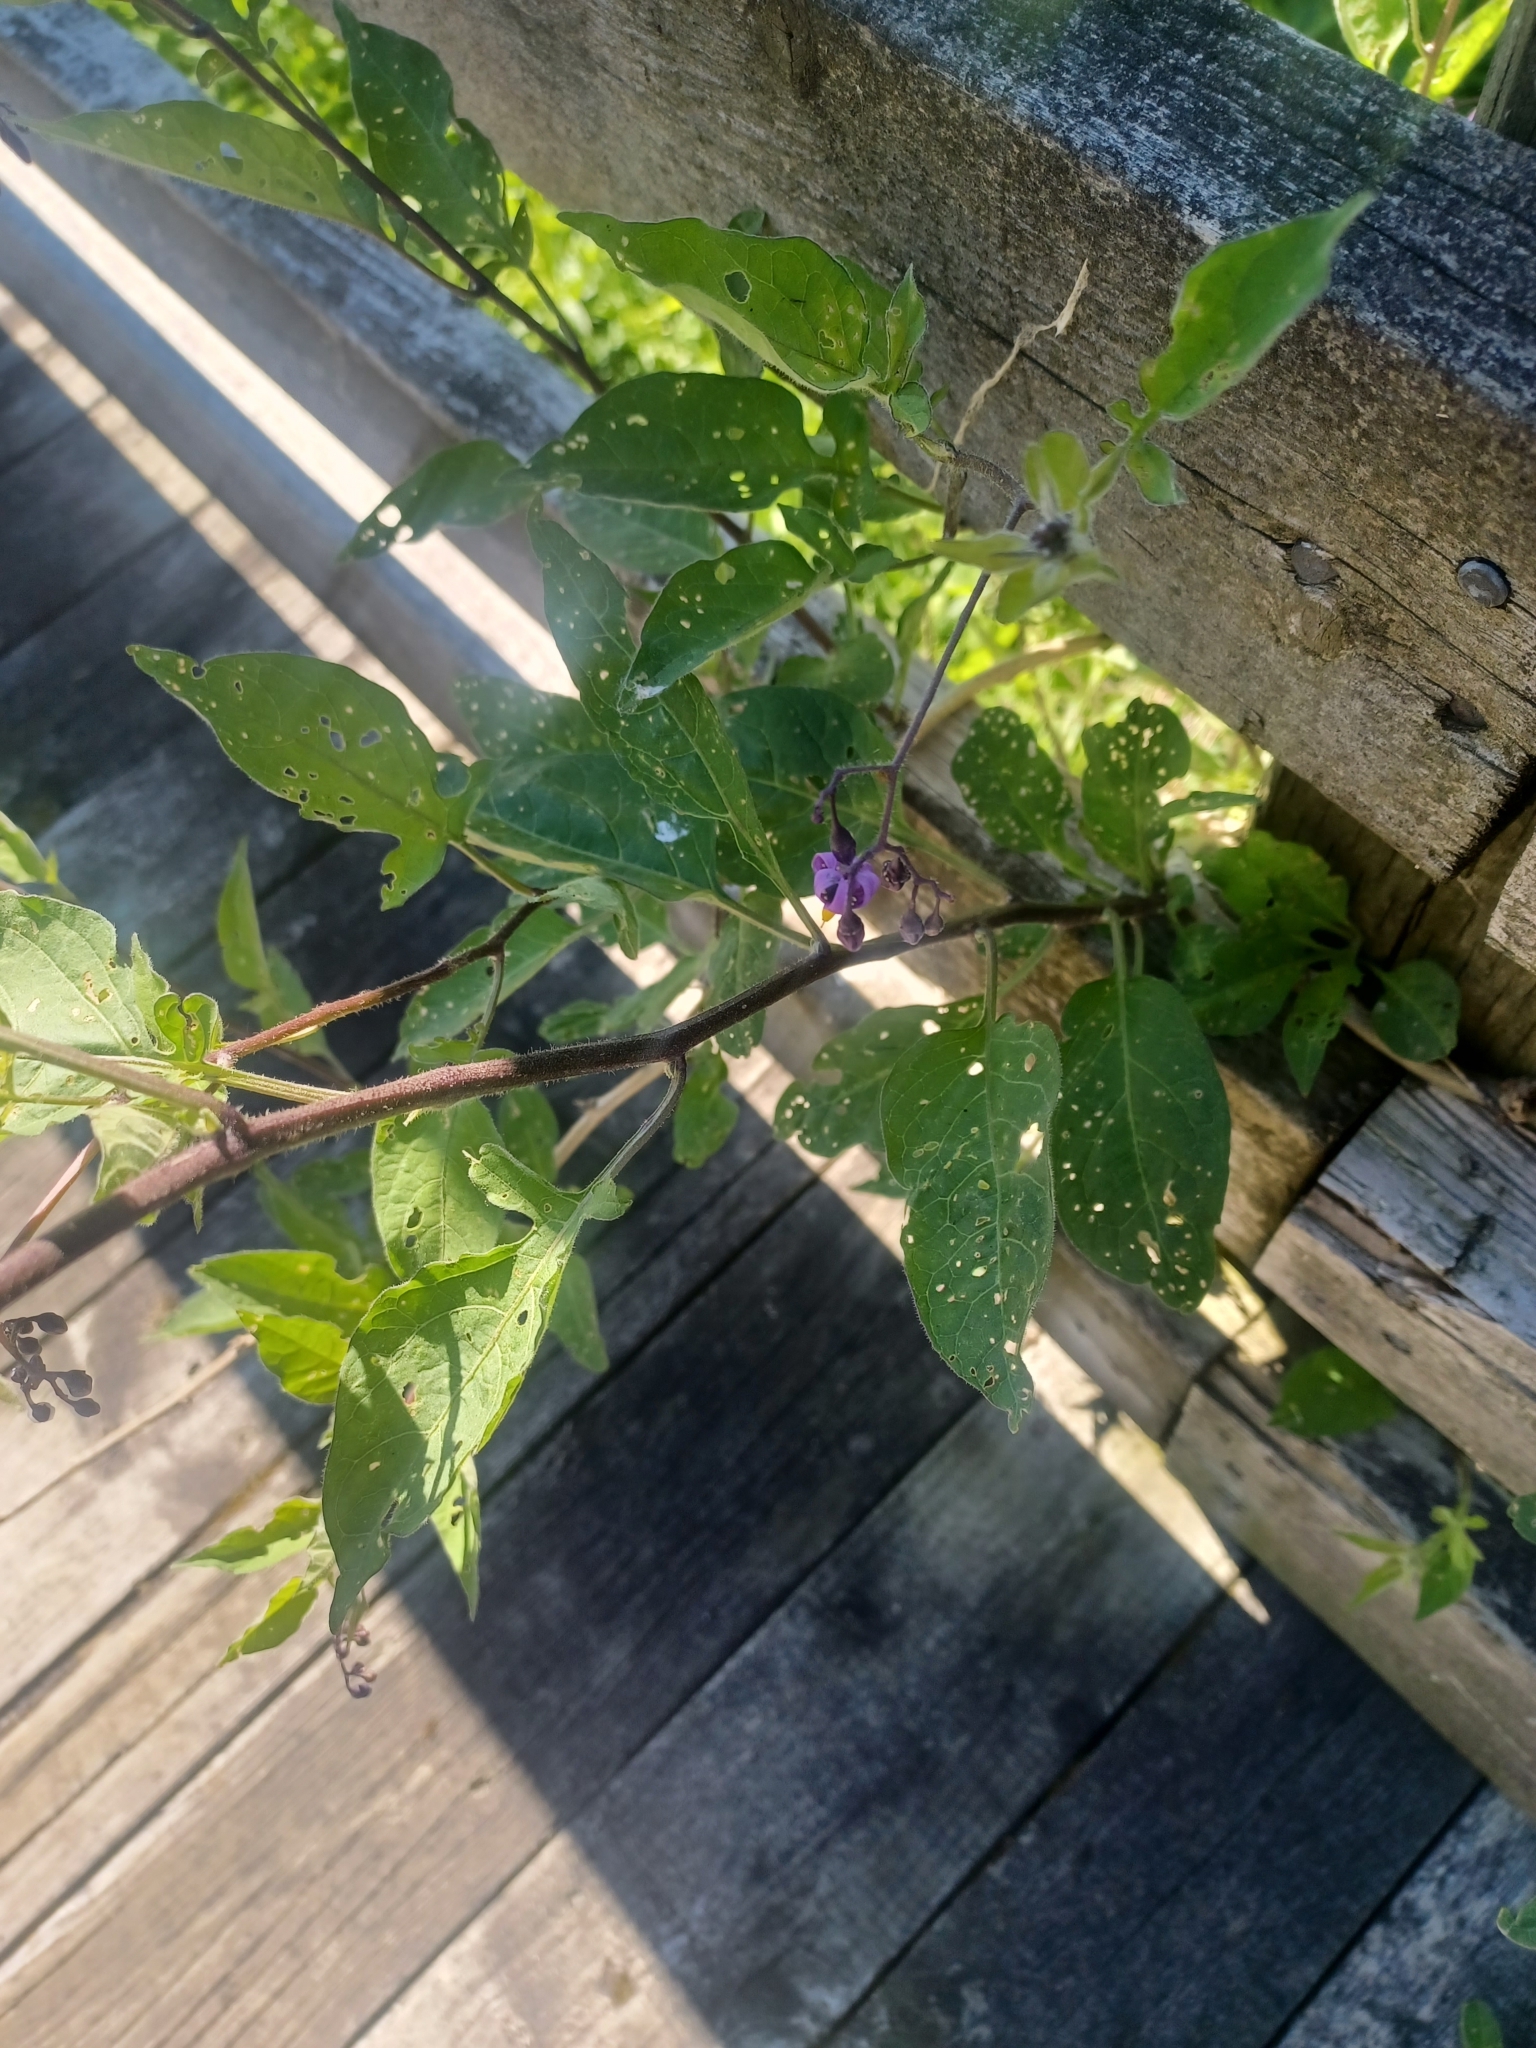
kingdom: Plantae
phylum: Tracheophyta
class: Magnoliopsida
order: Solanales
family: Solanaceae
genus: Solanum
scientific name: Solanum dulcamara
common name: Climbing nightshade
